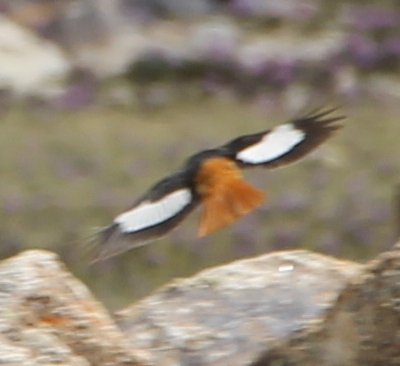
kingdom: Animalia
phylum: Chordata
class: Aves
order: Passeriformes
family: Muscicapidae
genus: Phoenicurus
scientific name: Phoenicurus erythrogastrus
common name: Güldenstädt's redstart
